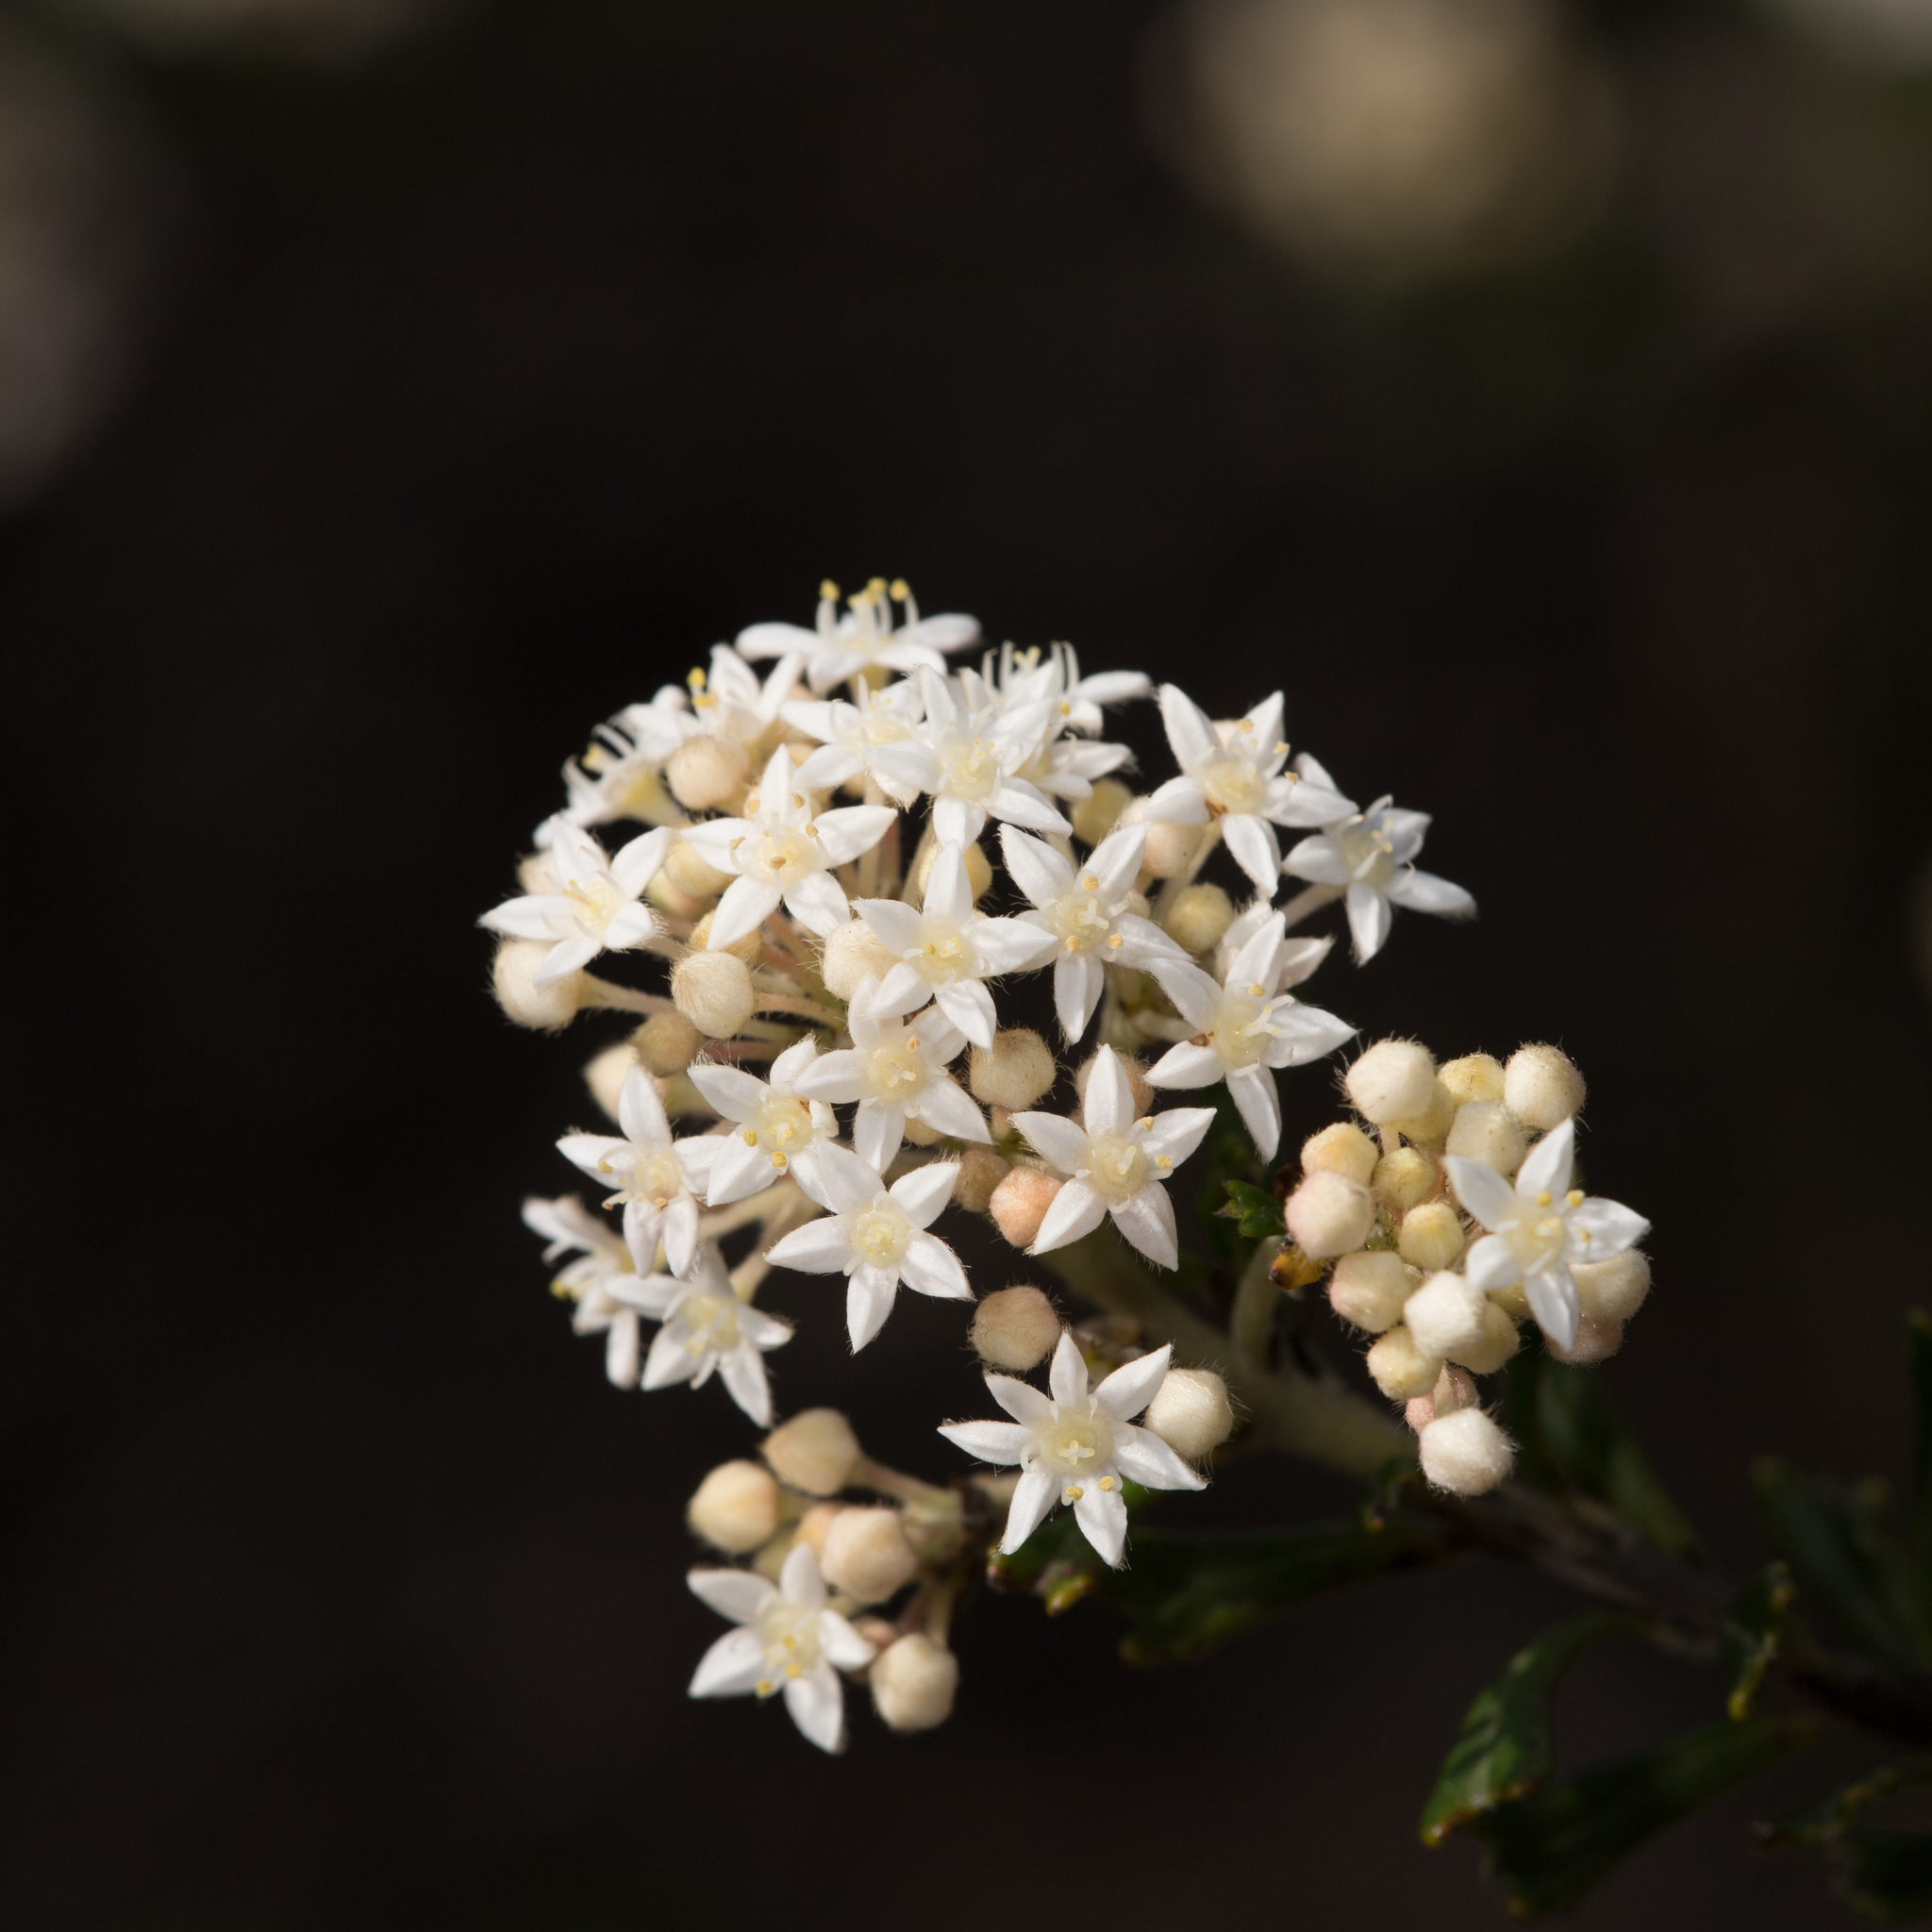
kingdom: Plantae
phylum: Tracheophyta
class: Magnoliopsida
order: Rosales
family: Rhamnaceae
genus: Pomaderris
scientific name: Pomaderris obcordata
